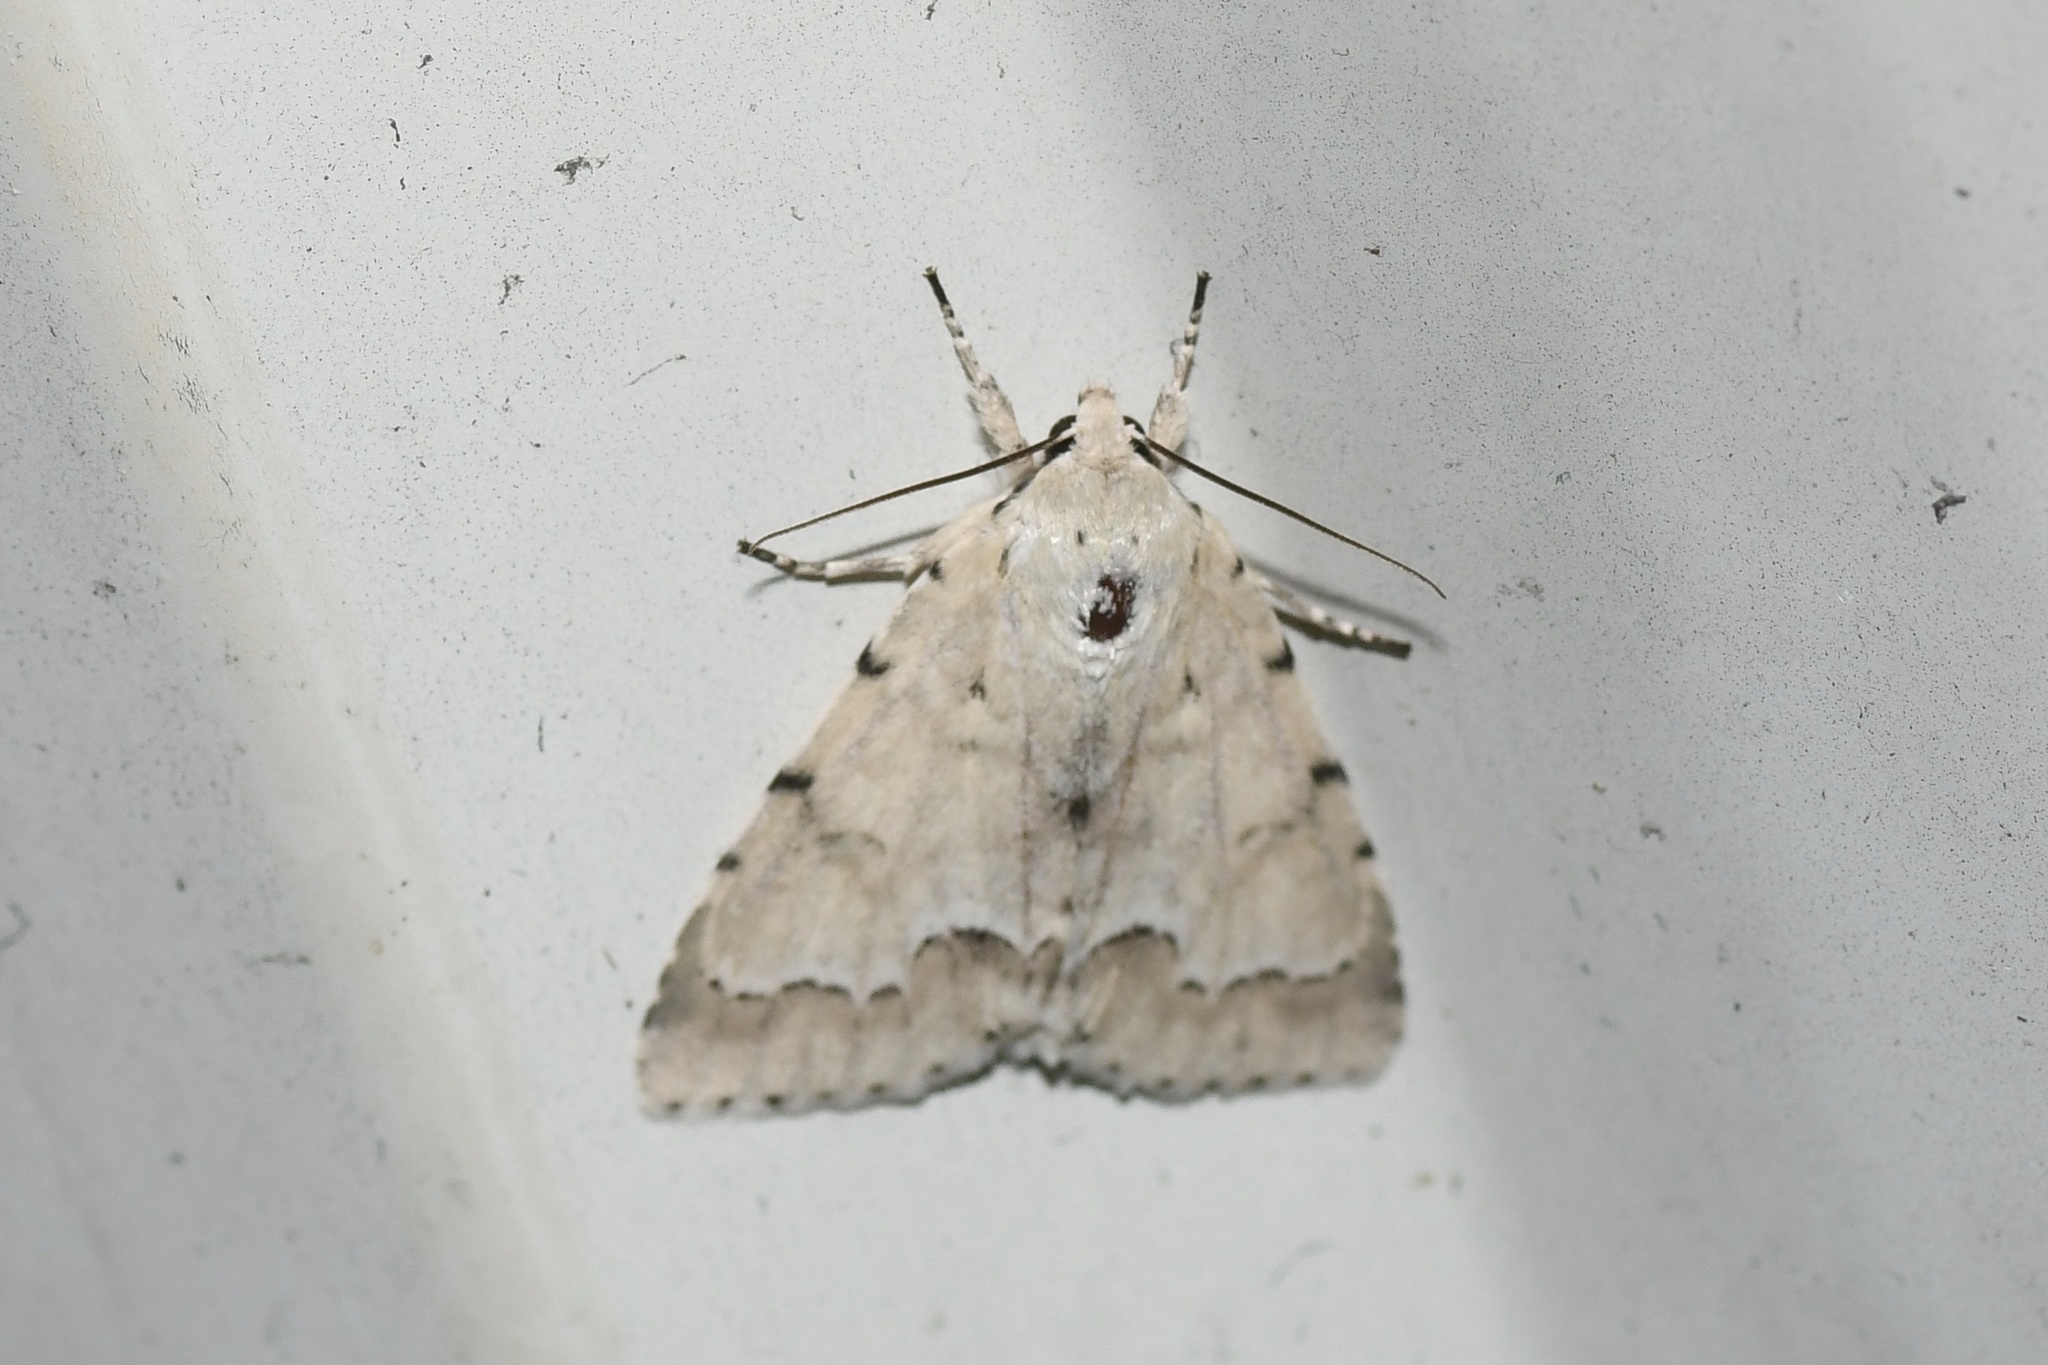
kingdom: Animalia
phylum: Arthropoda
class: Insecta
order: Lepidoptera
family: Noctuidae
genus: Acronicta
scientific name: Acronicta innotata
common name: Unmarked dagger
